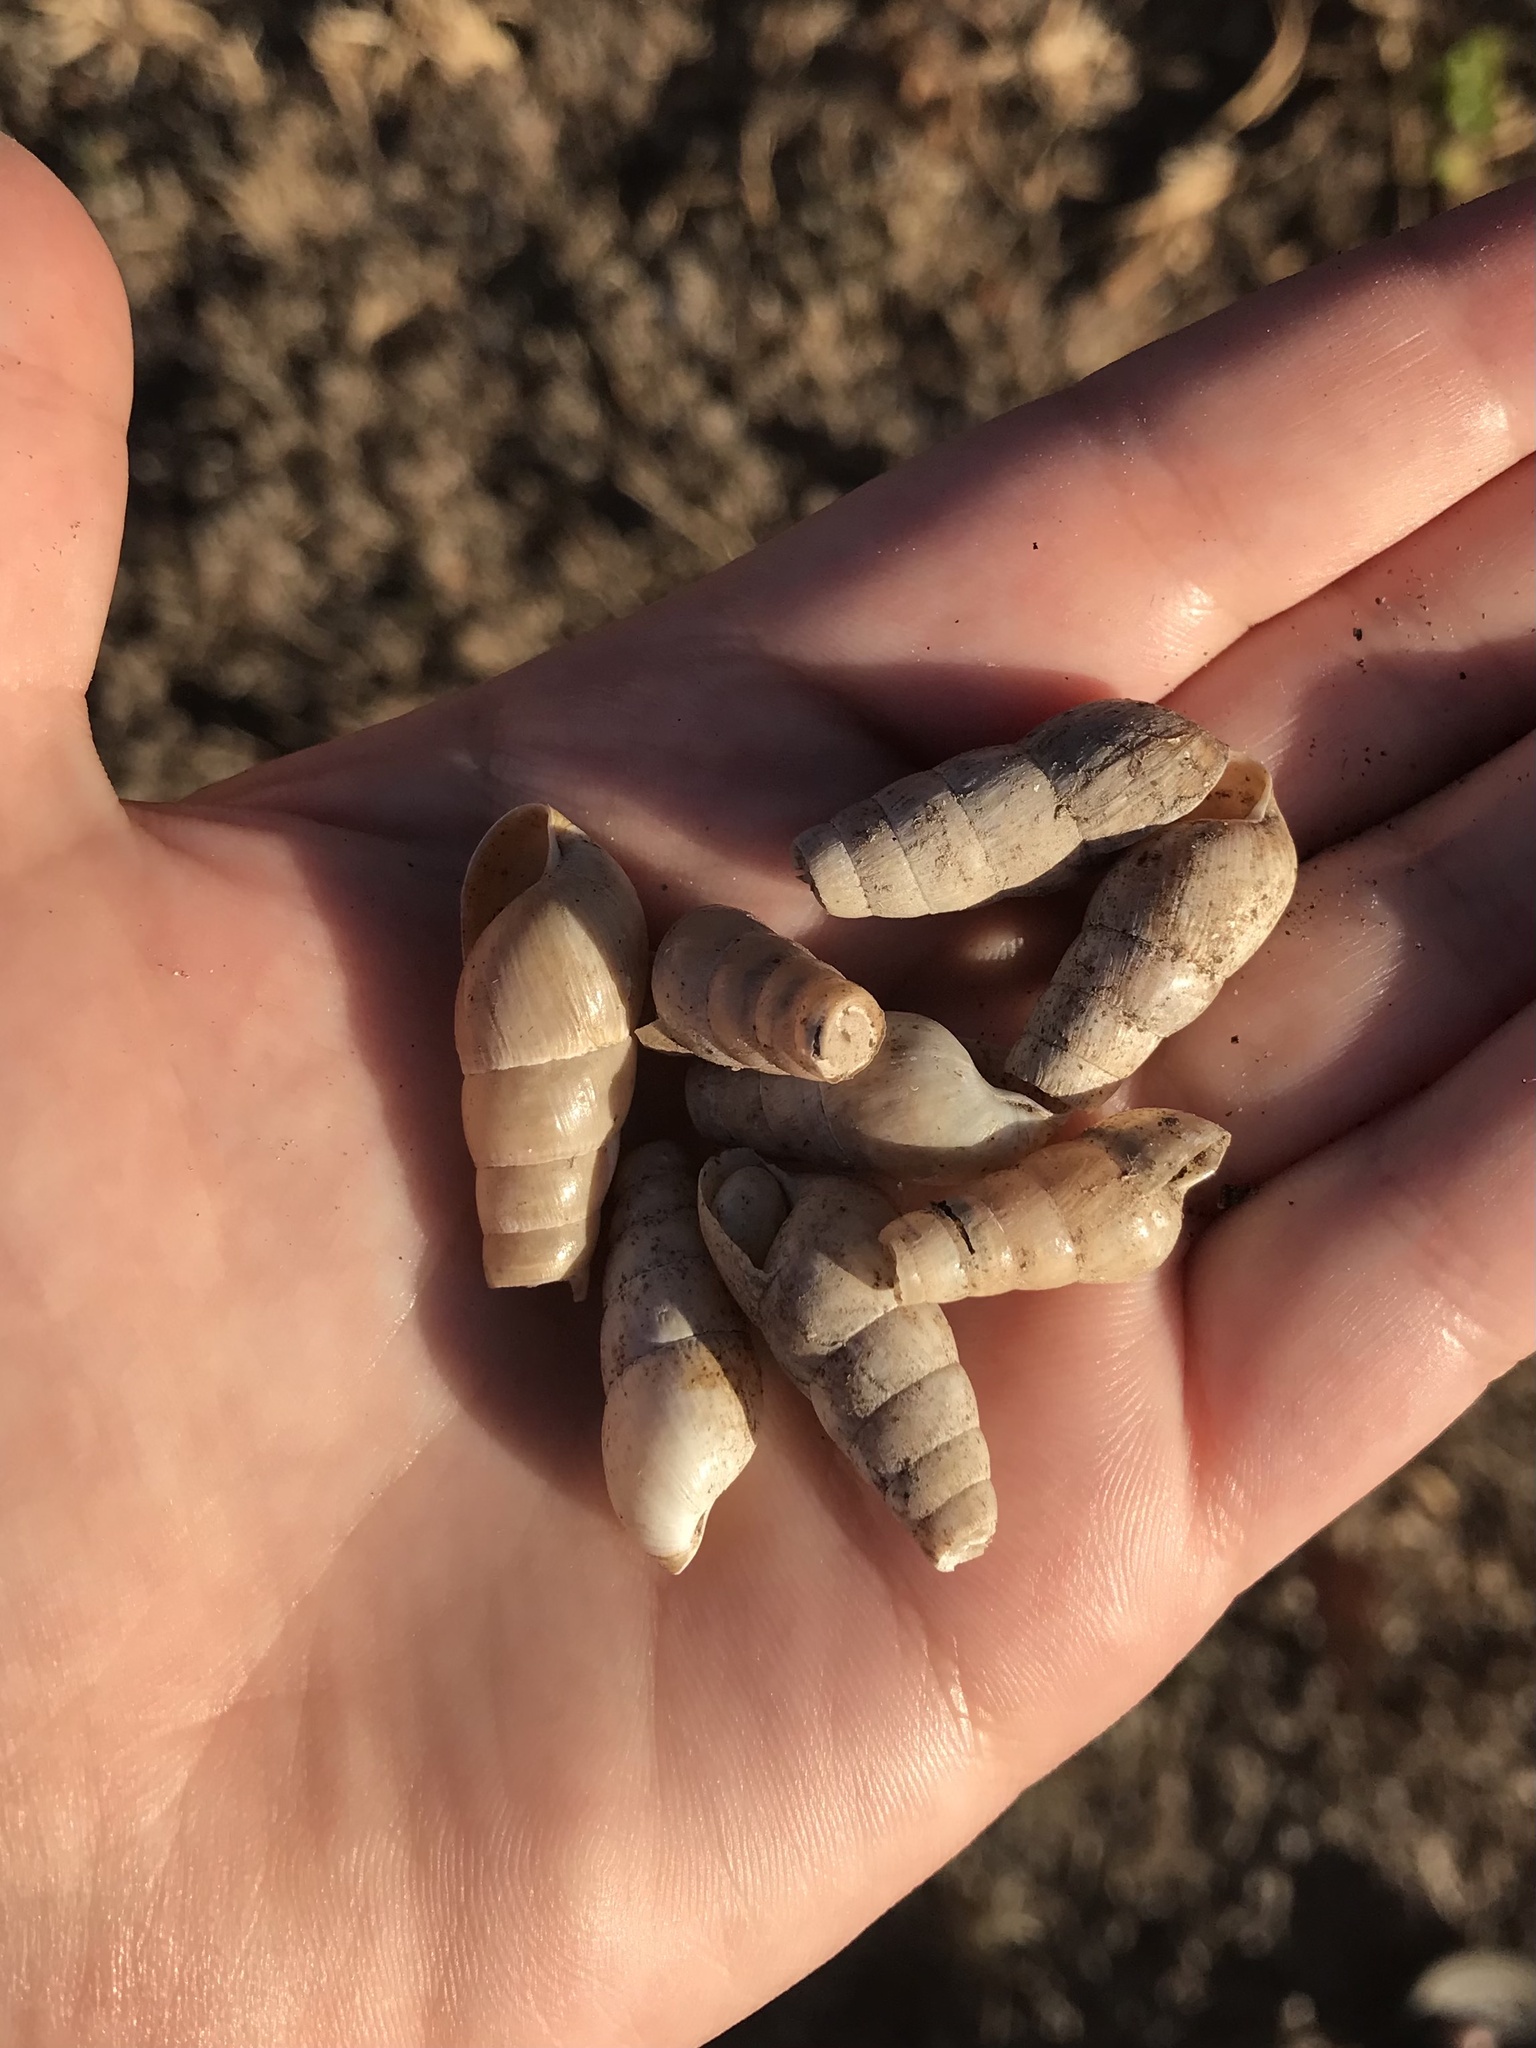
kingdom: Animalia
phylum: Mollusca
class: Gastropoda
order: Stylommatophora
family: Achatinidae
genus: Rumina
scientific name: Rumina decollata
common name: Decollate snail
